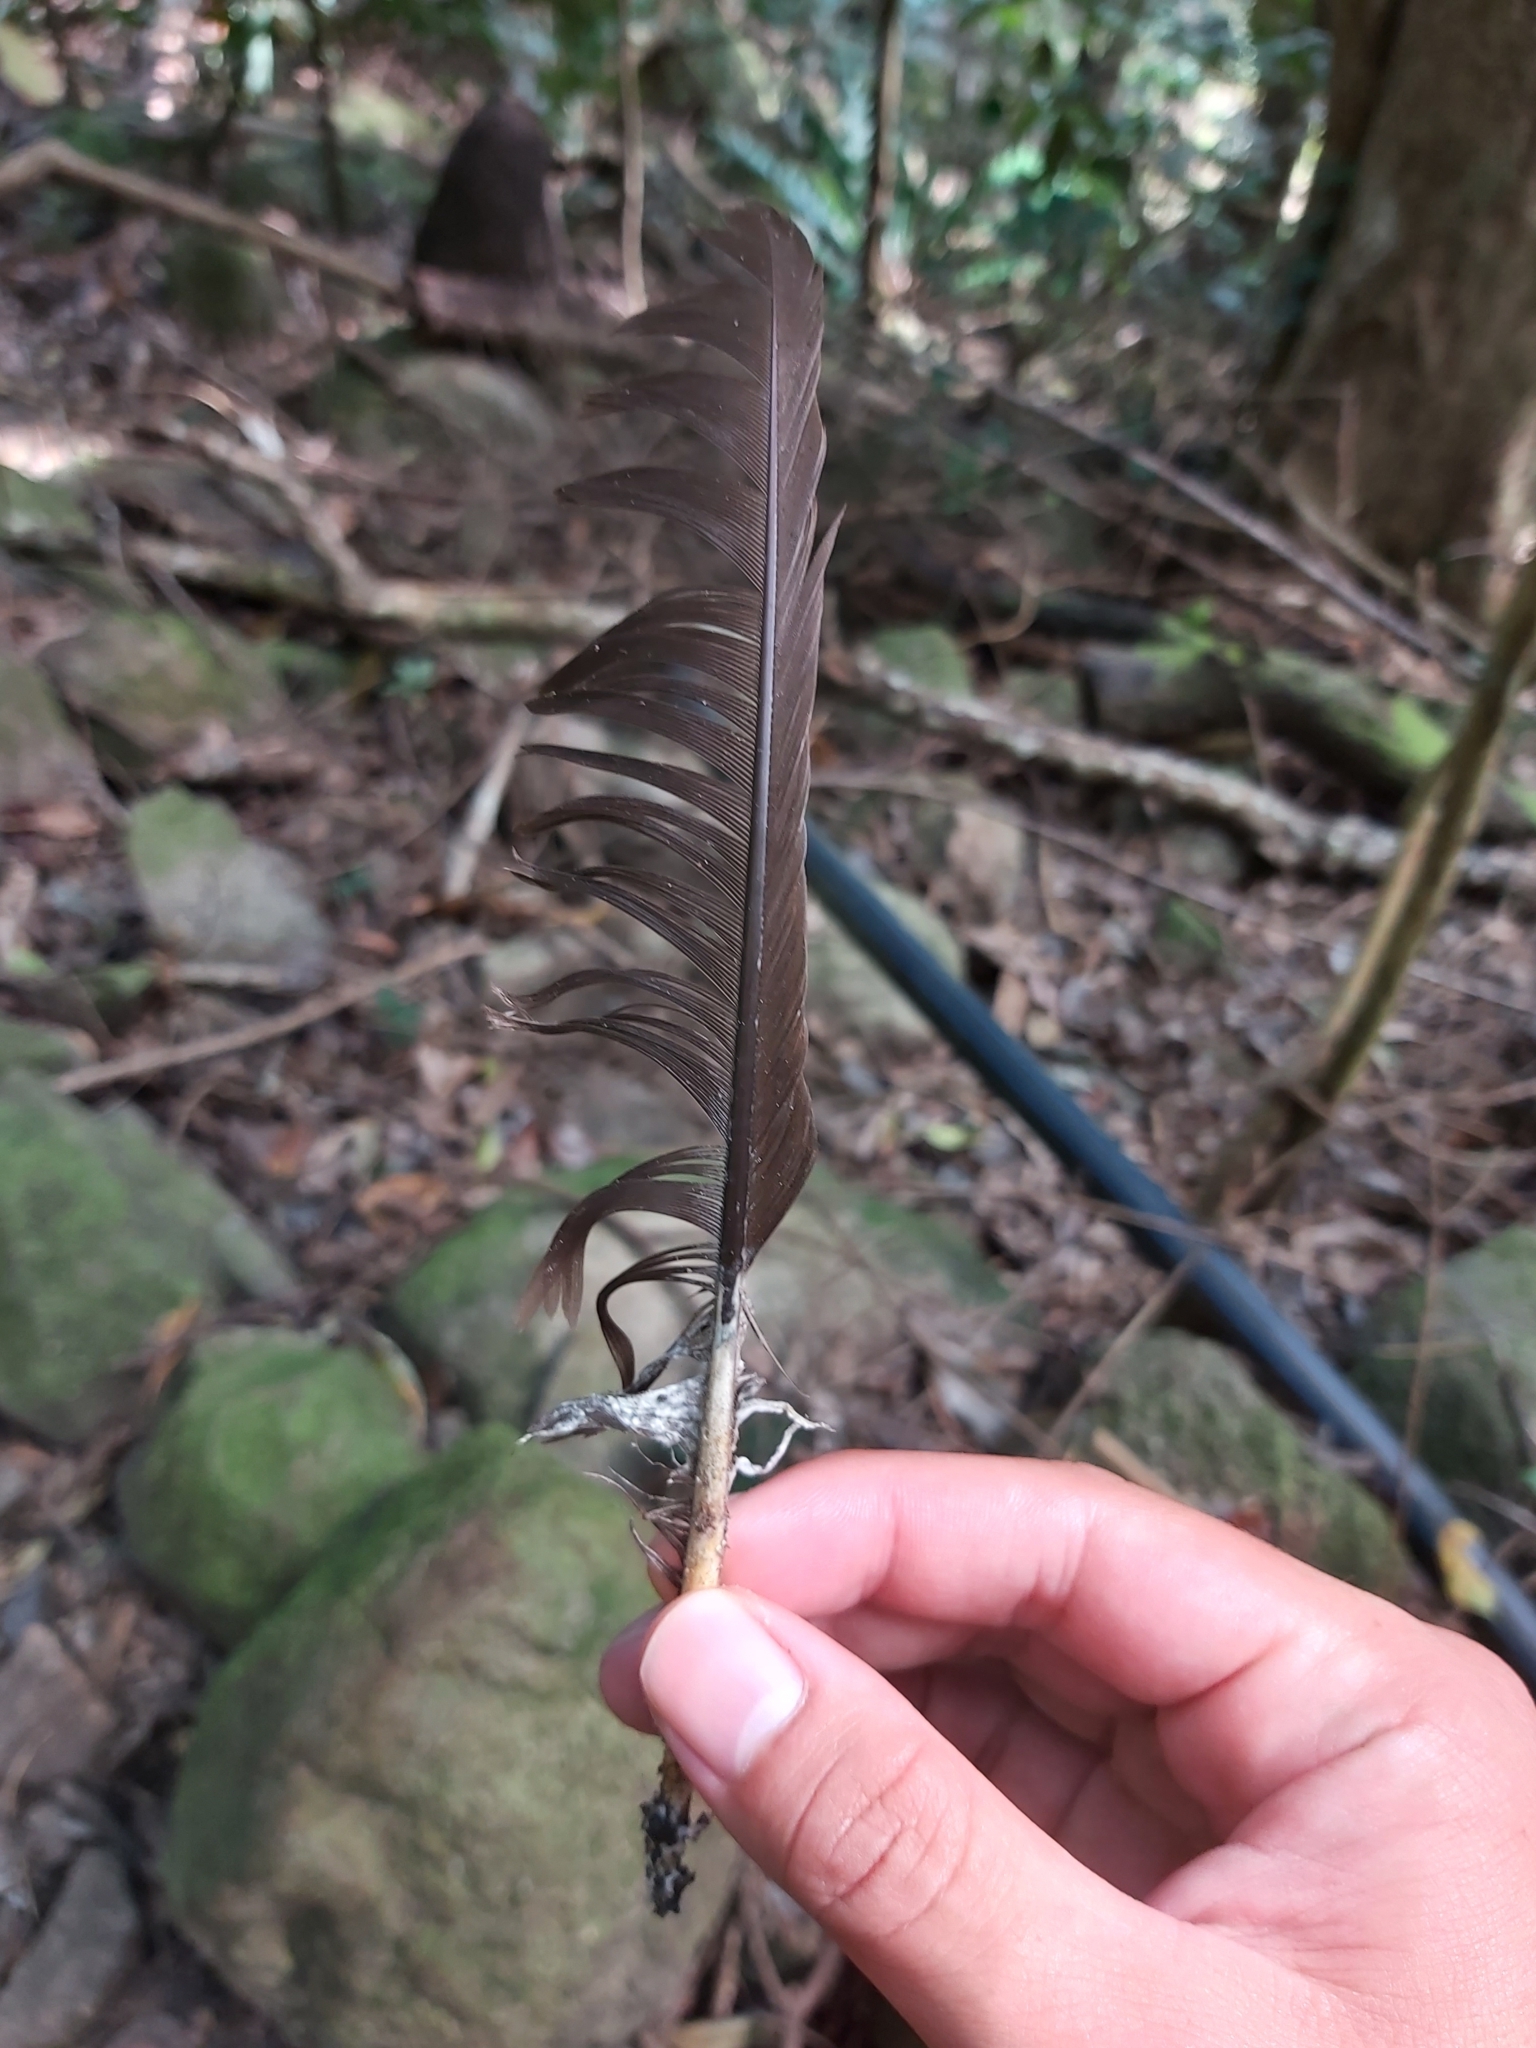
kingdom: Animalia
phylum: Chordata
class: Aves
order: Galliformes
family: Megapodiidae
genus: Megapodius
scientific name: Megapodius reinwardt
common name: Orange-footed scrubfowl
